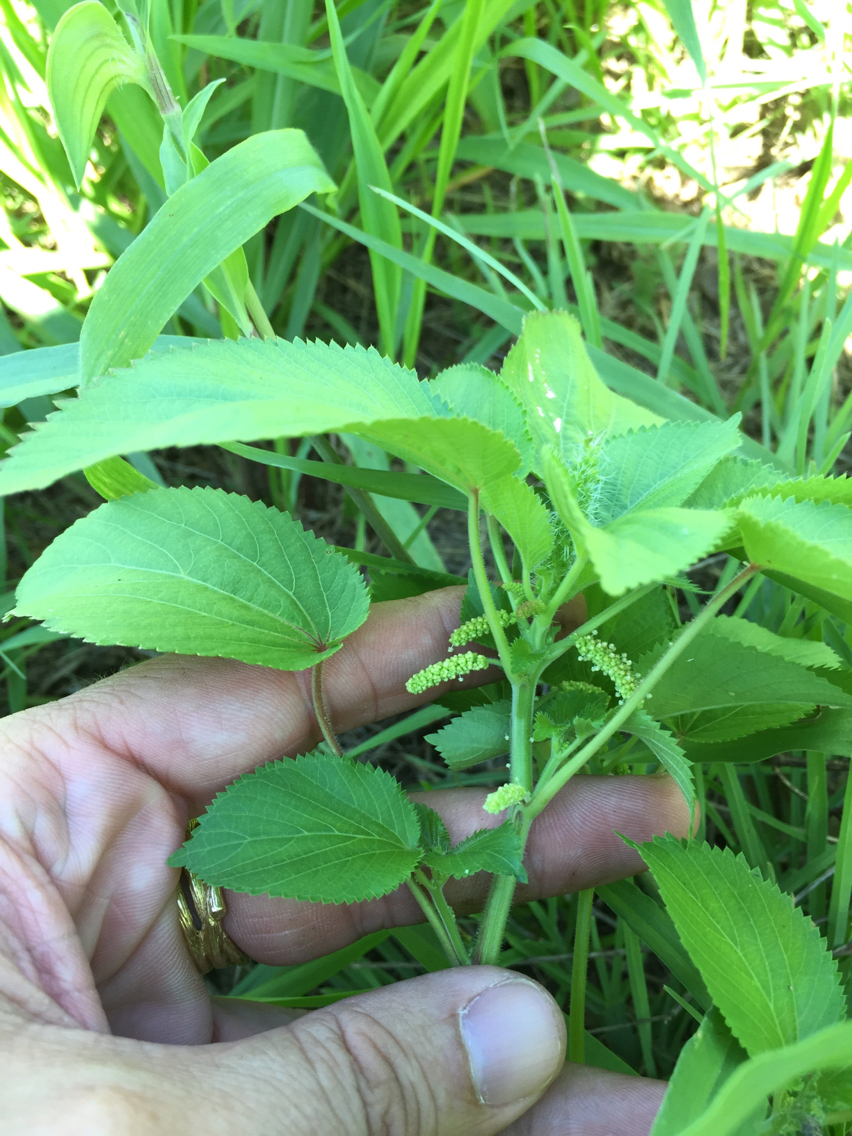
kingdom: Plantae
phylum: Tracheophyta
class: Magnoliopsida
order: Malpighiales
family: Euphorbiaceae
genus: Acalypha
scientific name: Acalypha ostryifolia
